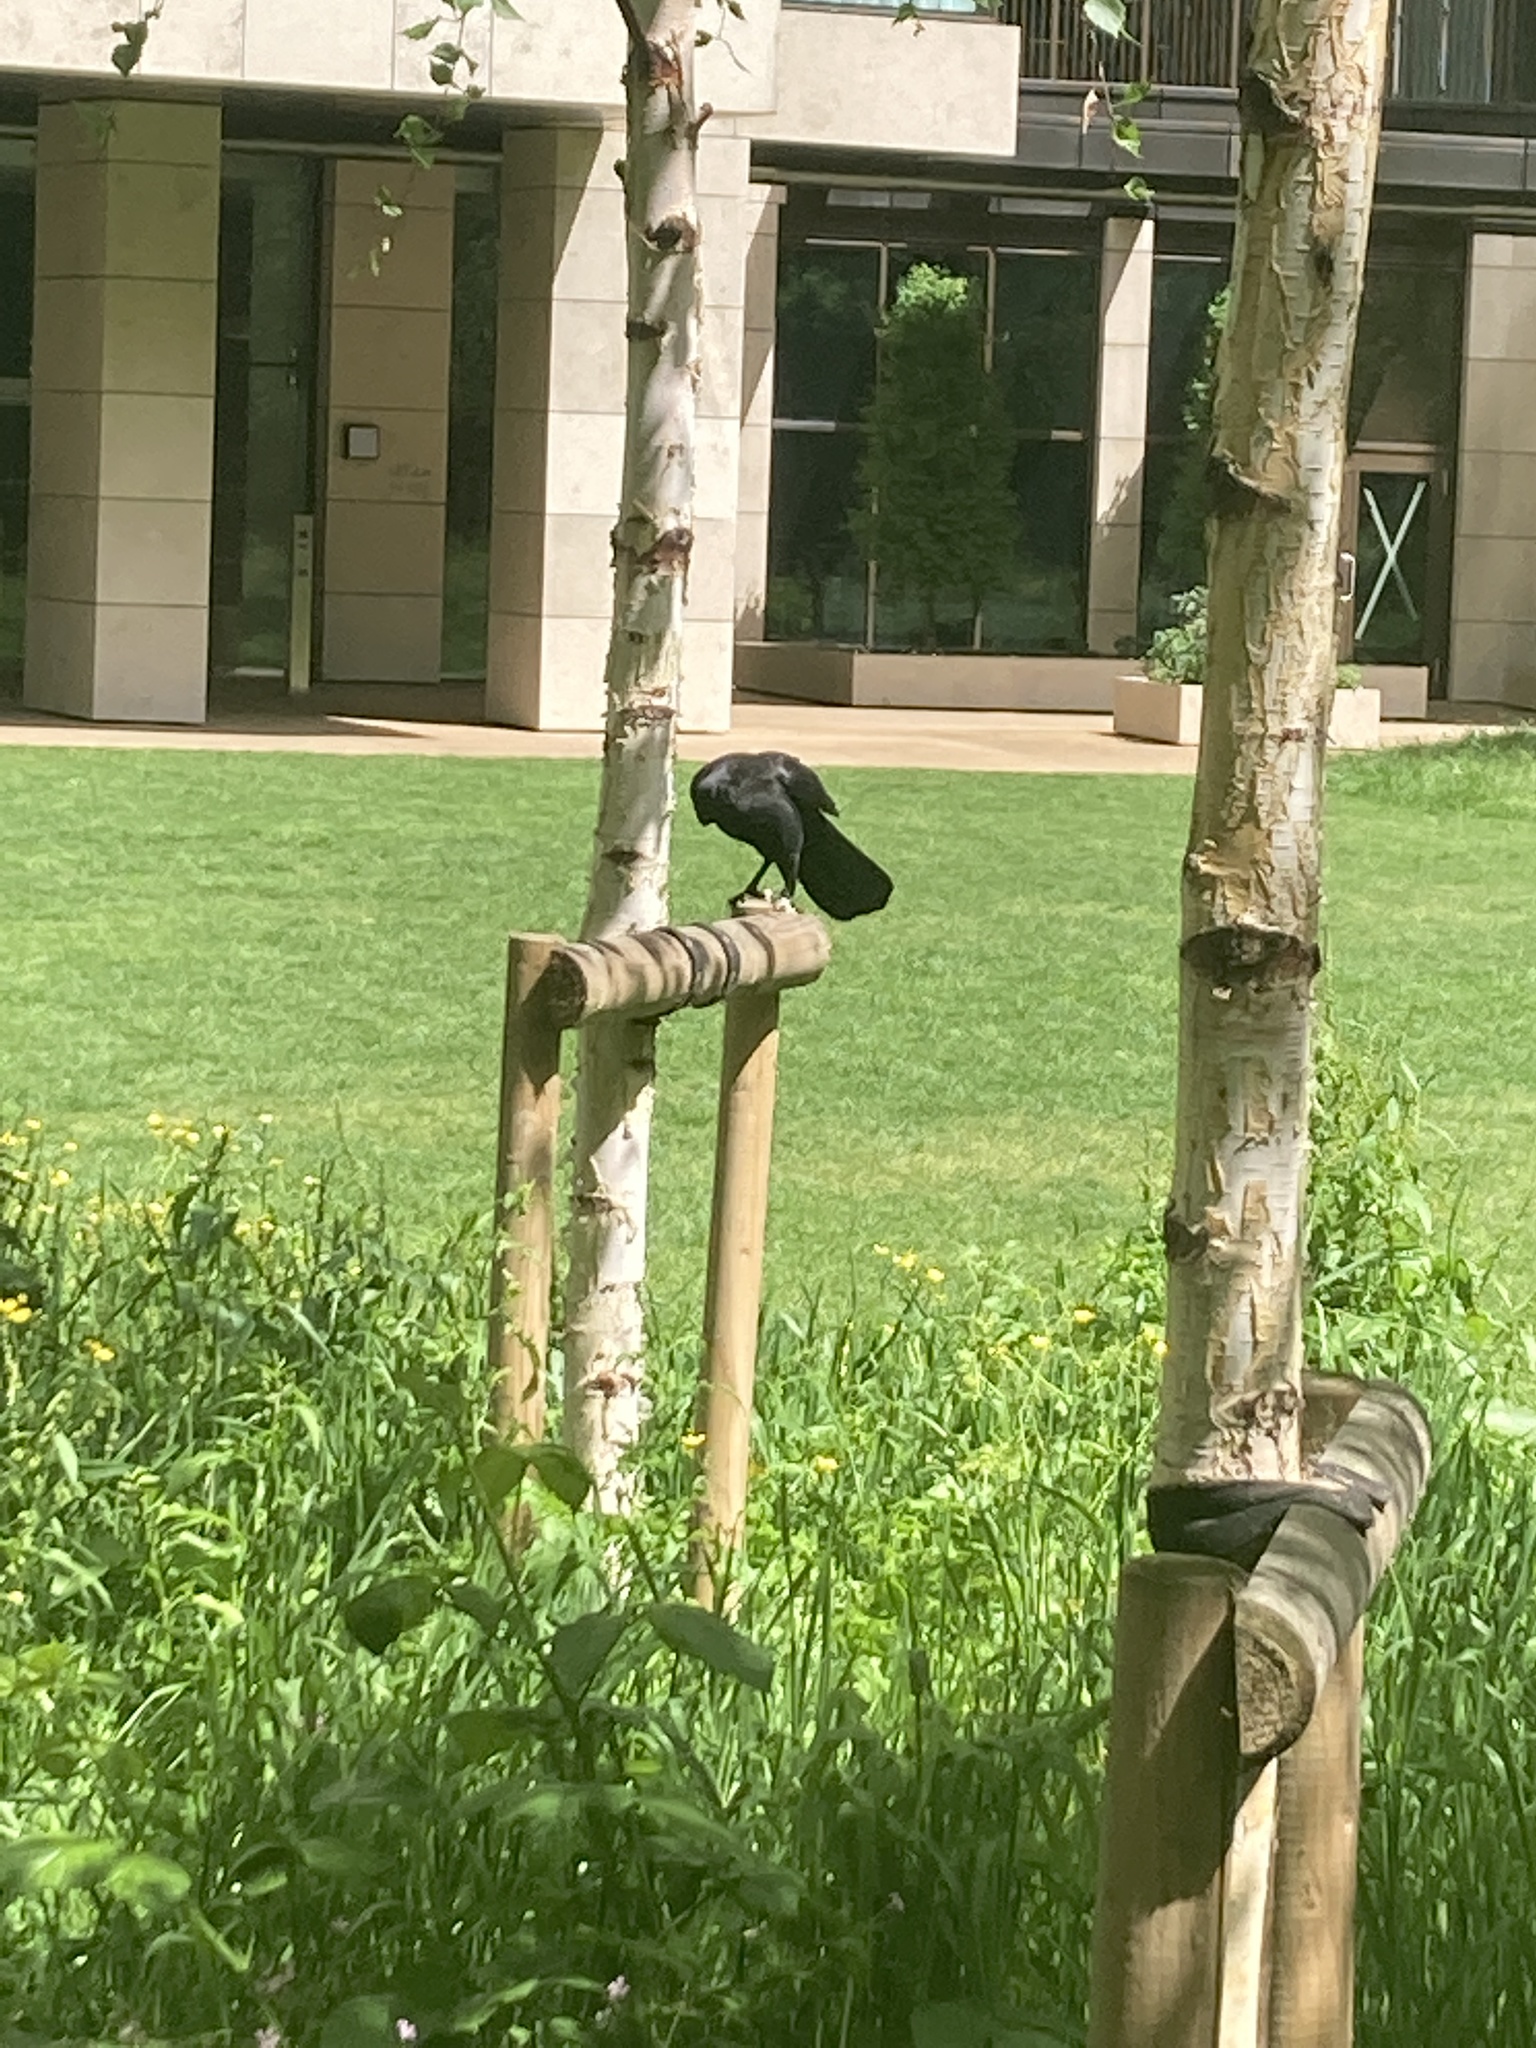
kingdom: Animalia
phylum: Chordata
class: Aves
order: Passeriformes
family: Corvidae
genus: Corvus
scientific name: Corvus corone
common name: Carrion crow
